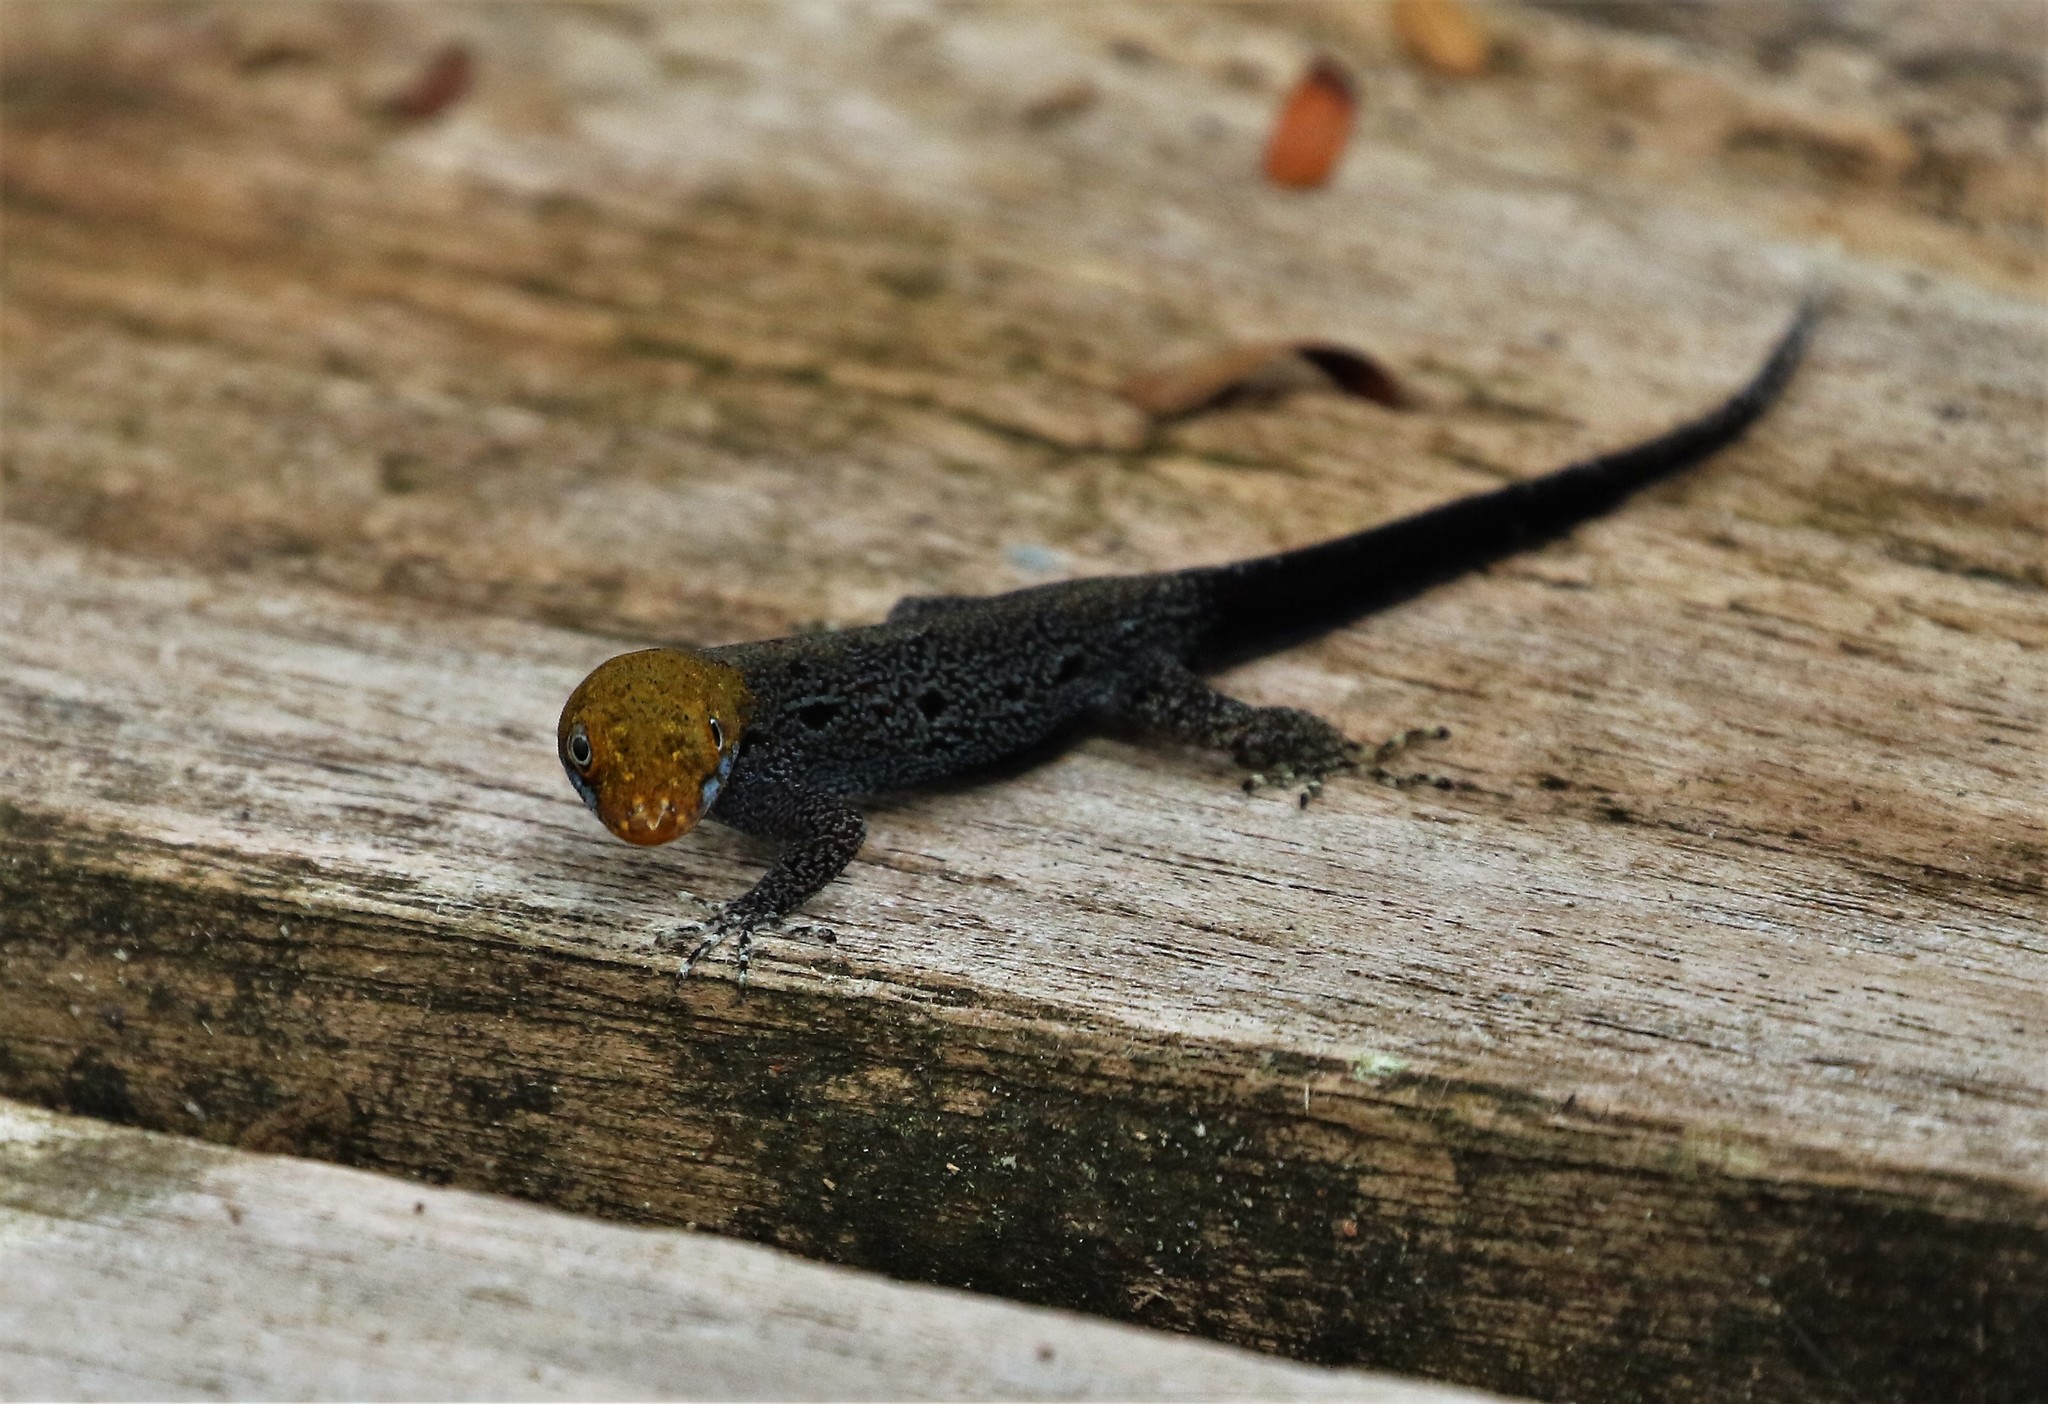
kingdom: Animalia
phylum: Chordata
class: Squamata
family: Sphaerodactylidae
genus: Gonatodes
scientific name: Gonatodes albogularis
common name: Yellow-headed gecko
